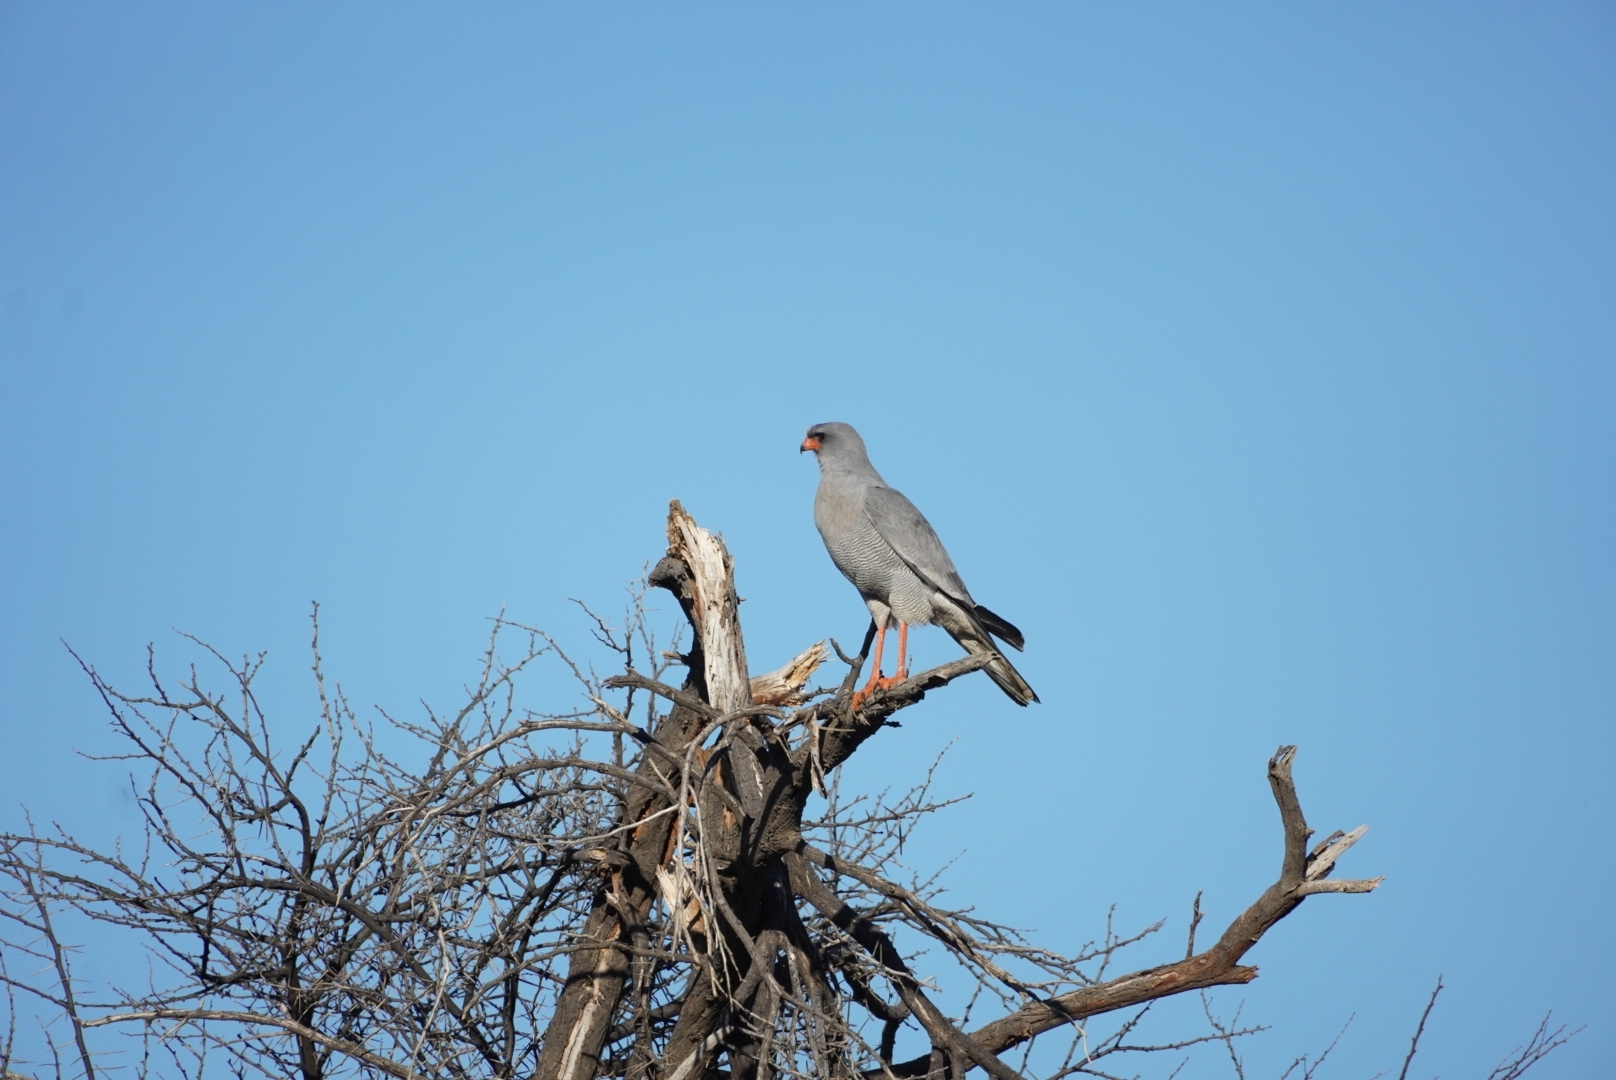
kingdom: Animalia
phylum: Chordata
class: Aves
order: Accipitriformes
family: Accipitridae
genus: Melierax
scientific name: Melierax canorus
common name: Pale chanting-goshawk
